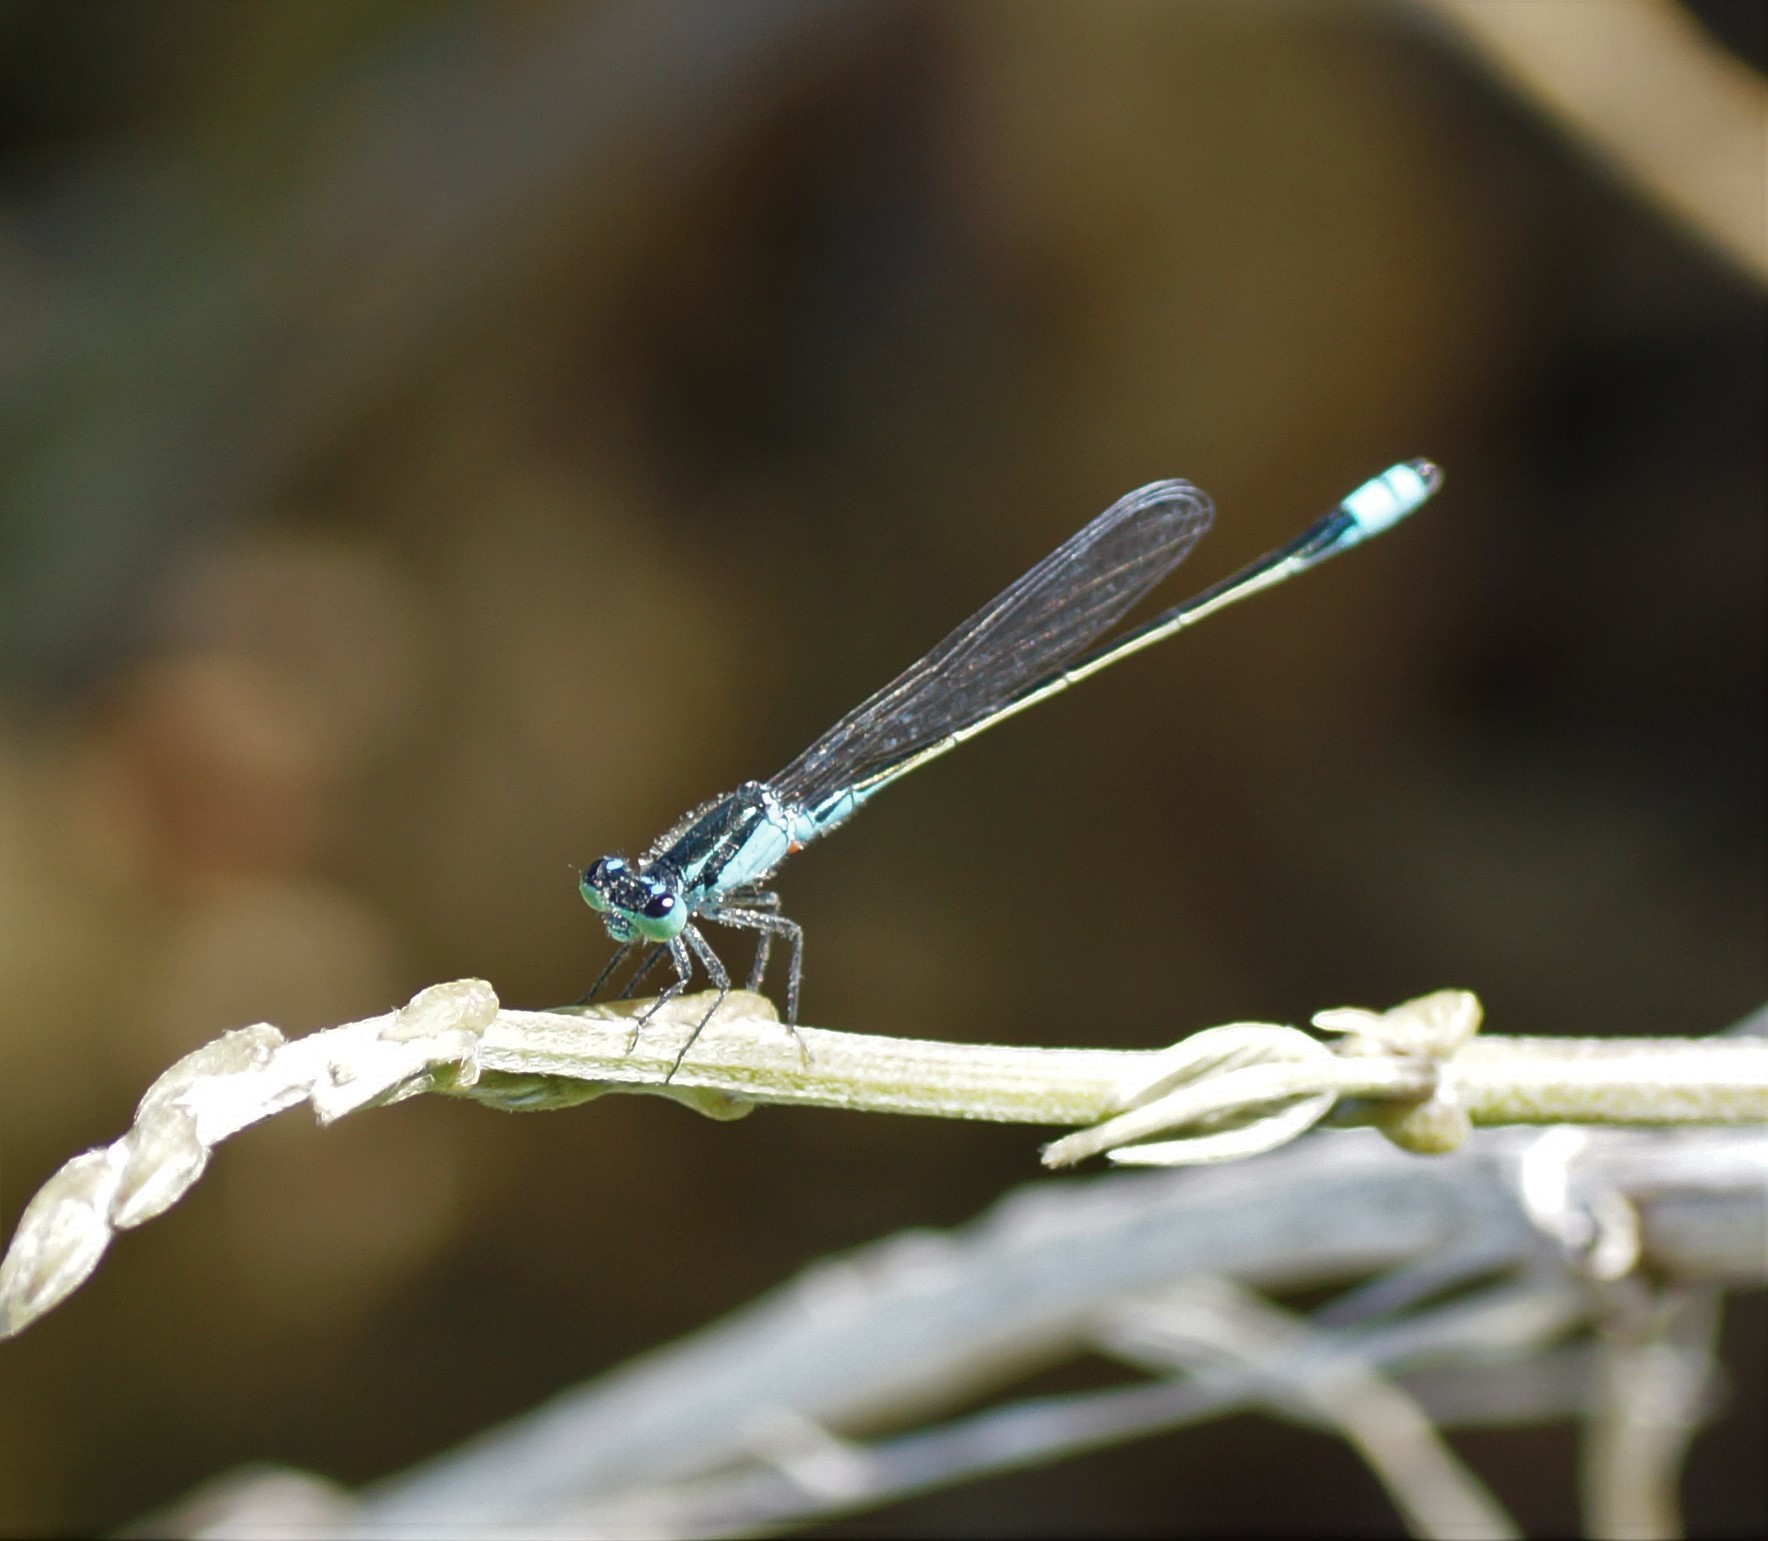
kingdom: Animalia
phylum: Arthropoda
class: Insecta
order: Odonata
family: Coenagrionidae
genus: Ischnura
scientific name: Ischnura heterosticta
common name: Common bluetail
